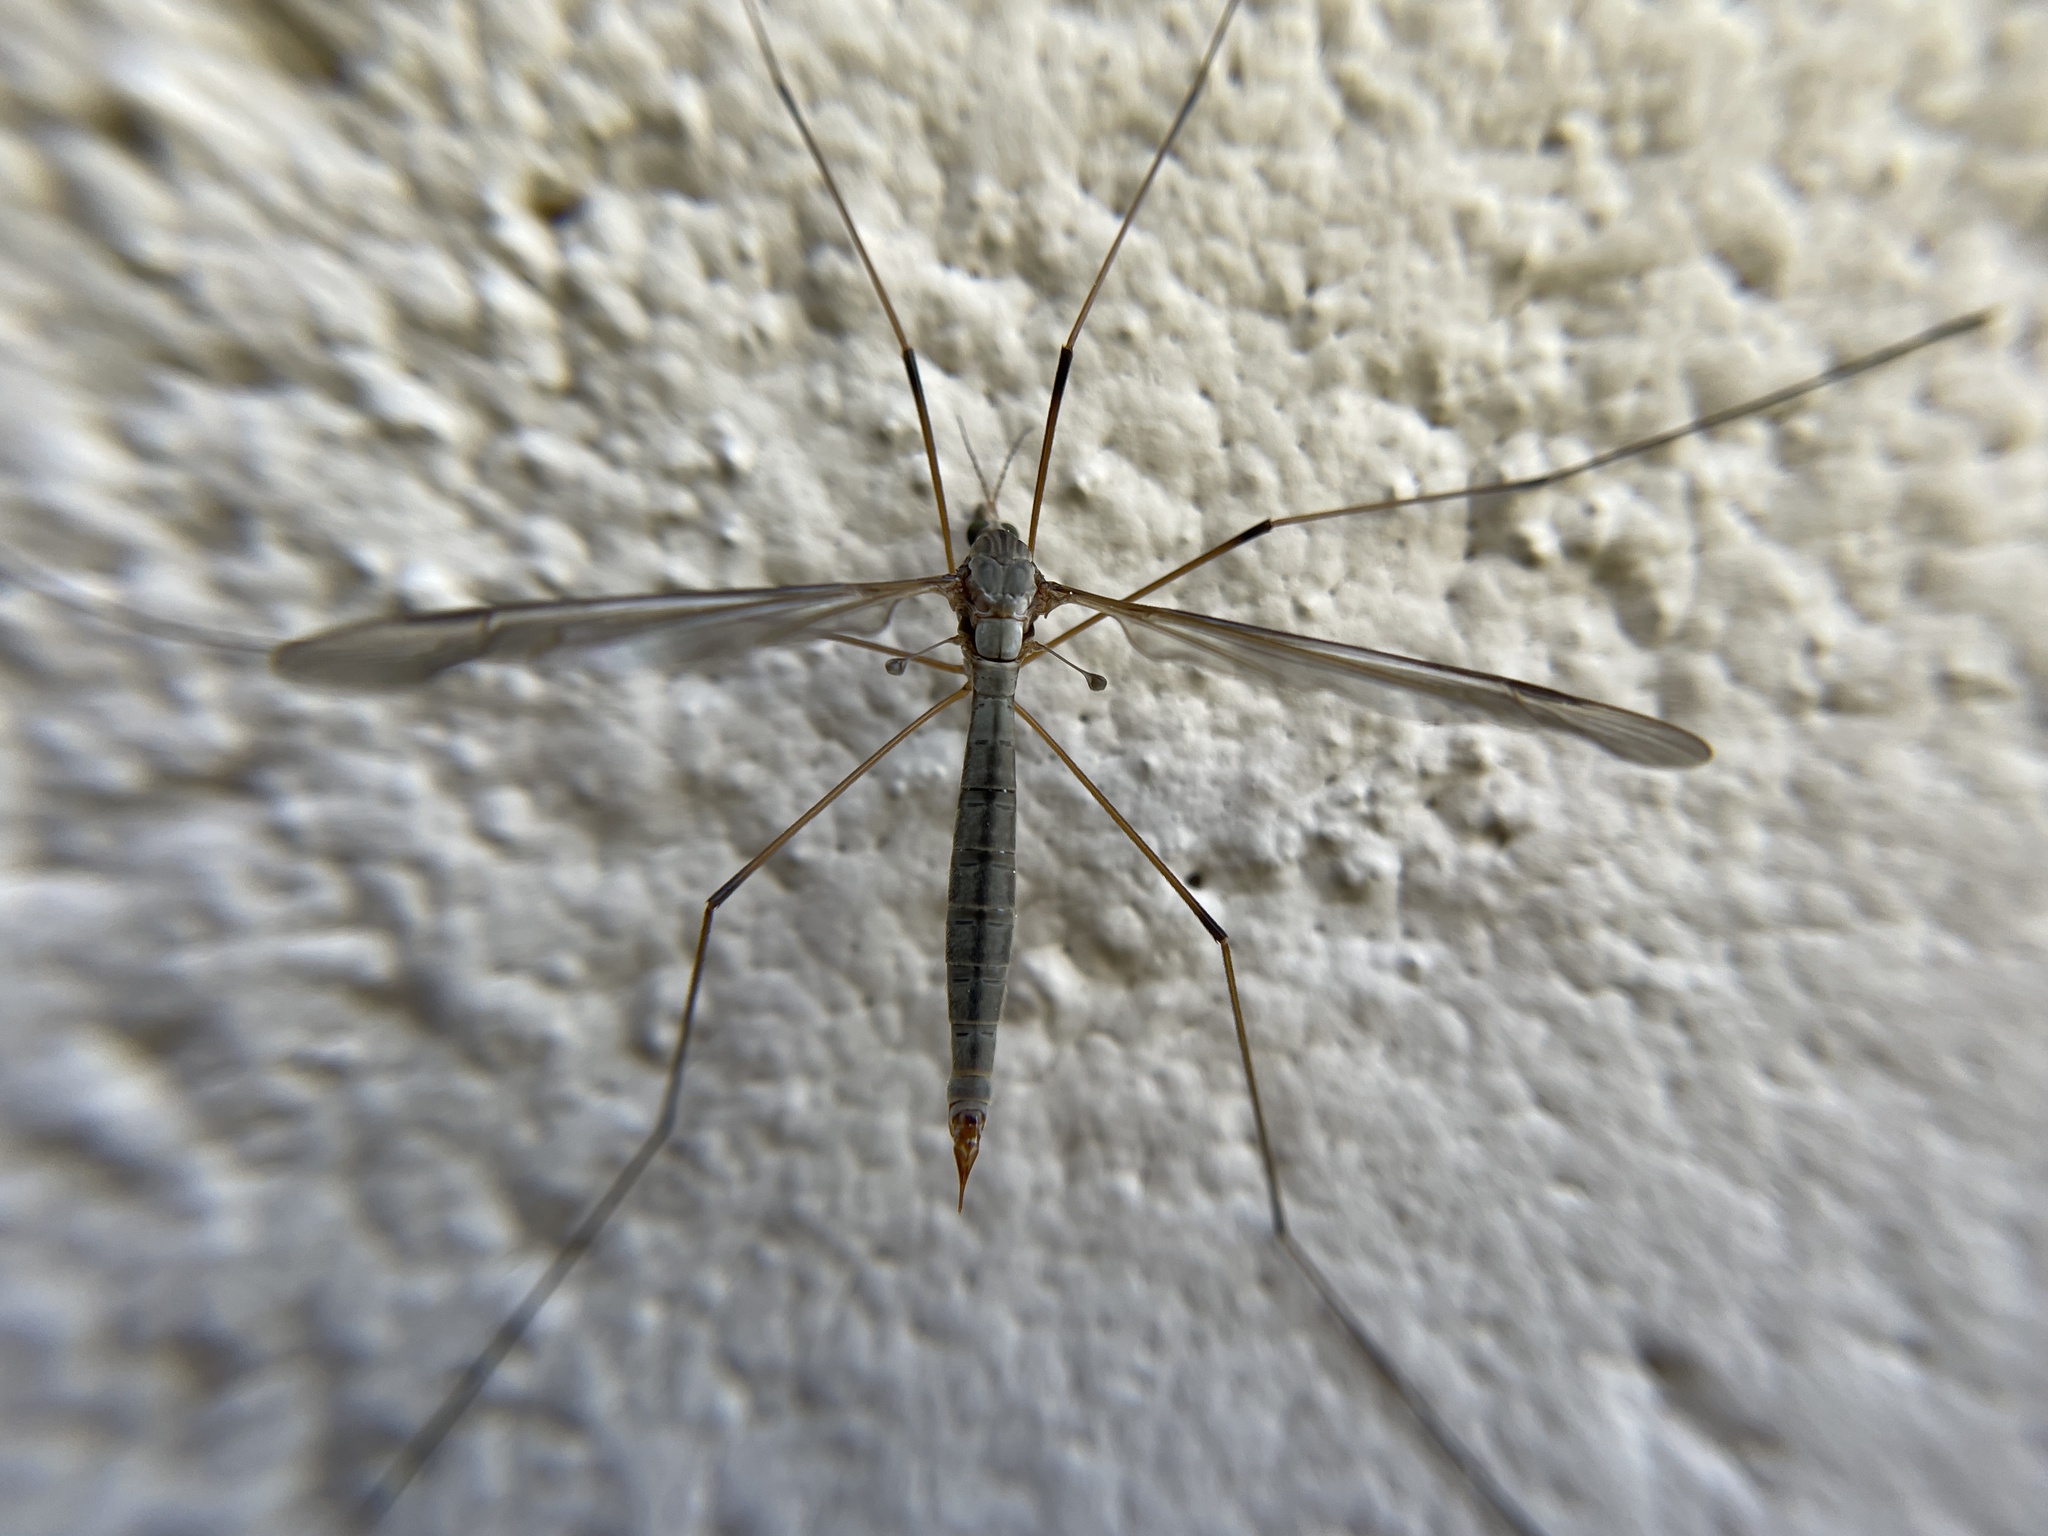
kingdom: Animalia
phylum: Arthropoda
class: Insecta
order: Diptera
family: Tipulidae
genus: Tipula
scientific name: Tipula oleracea
